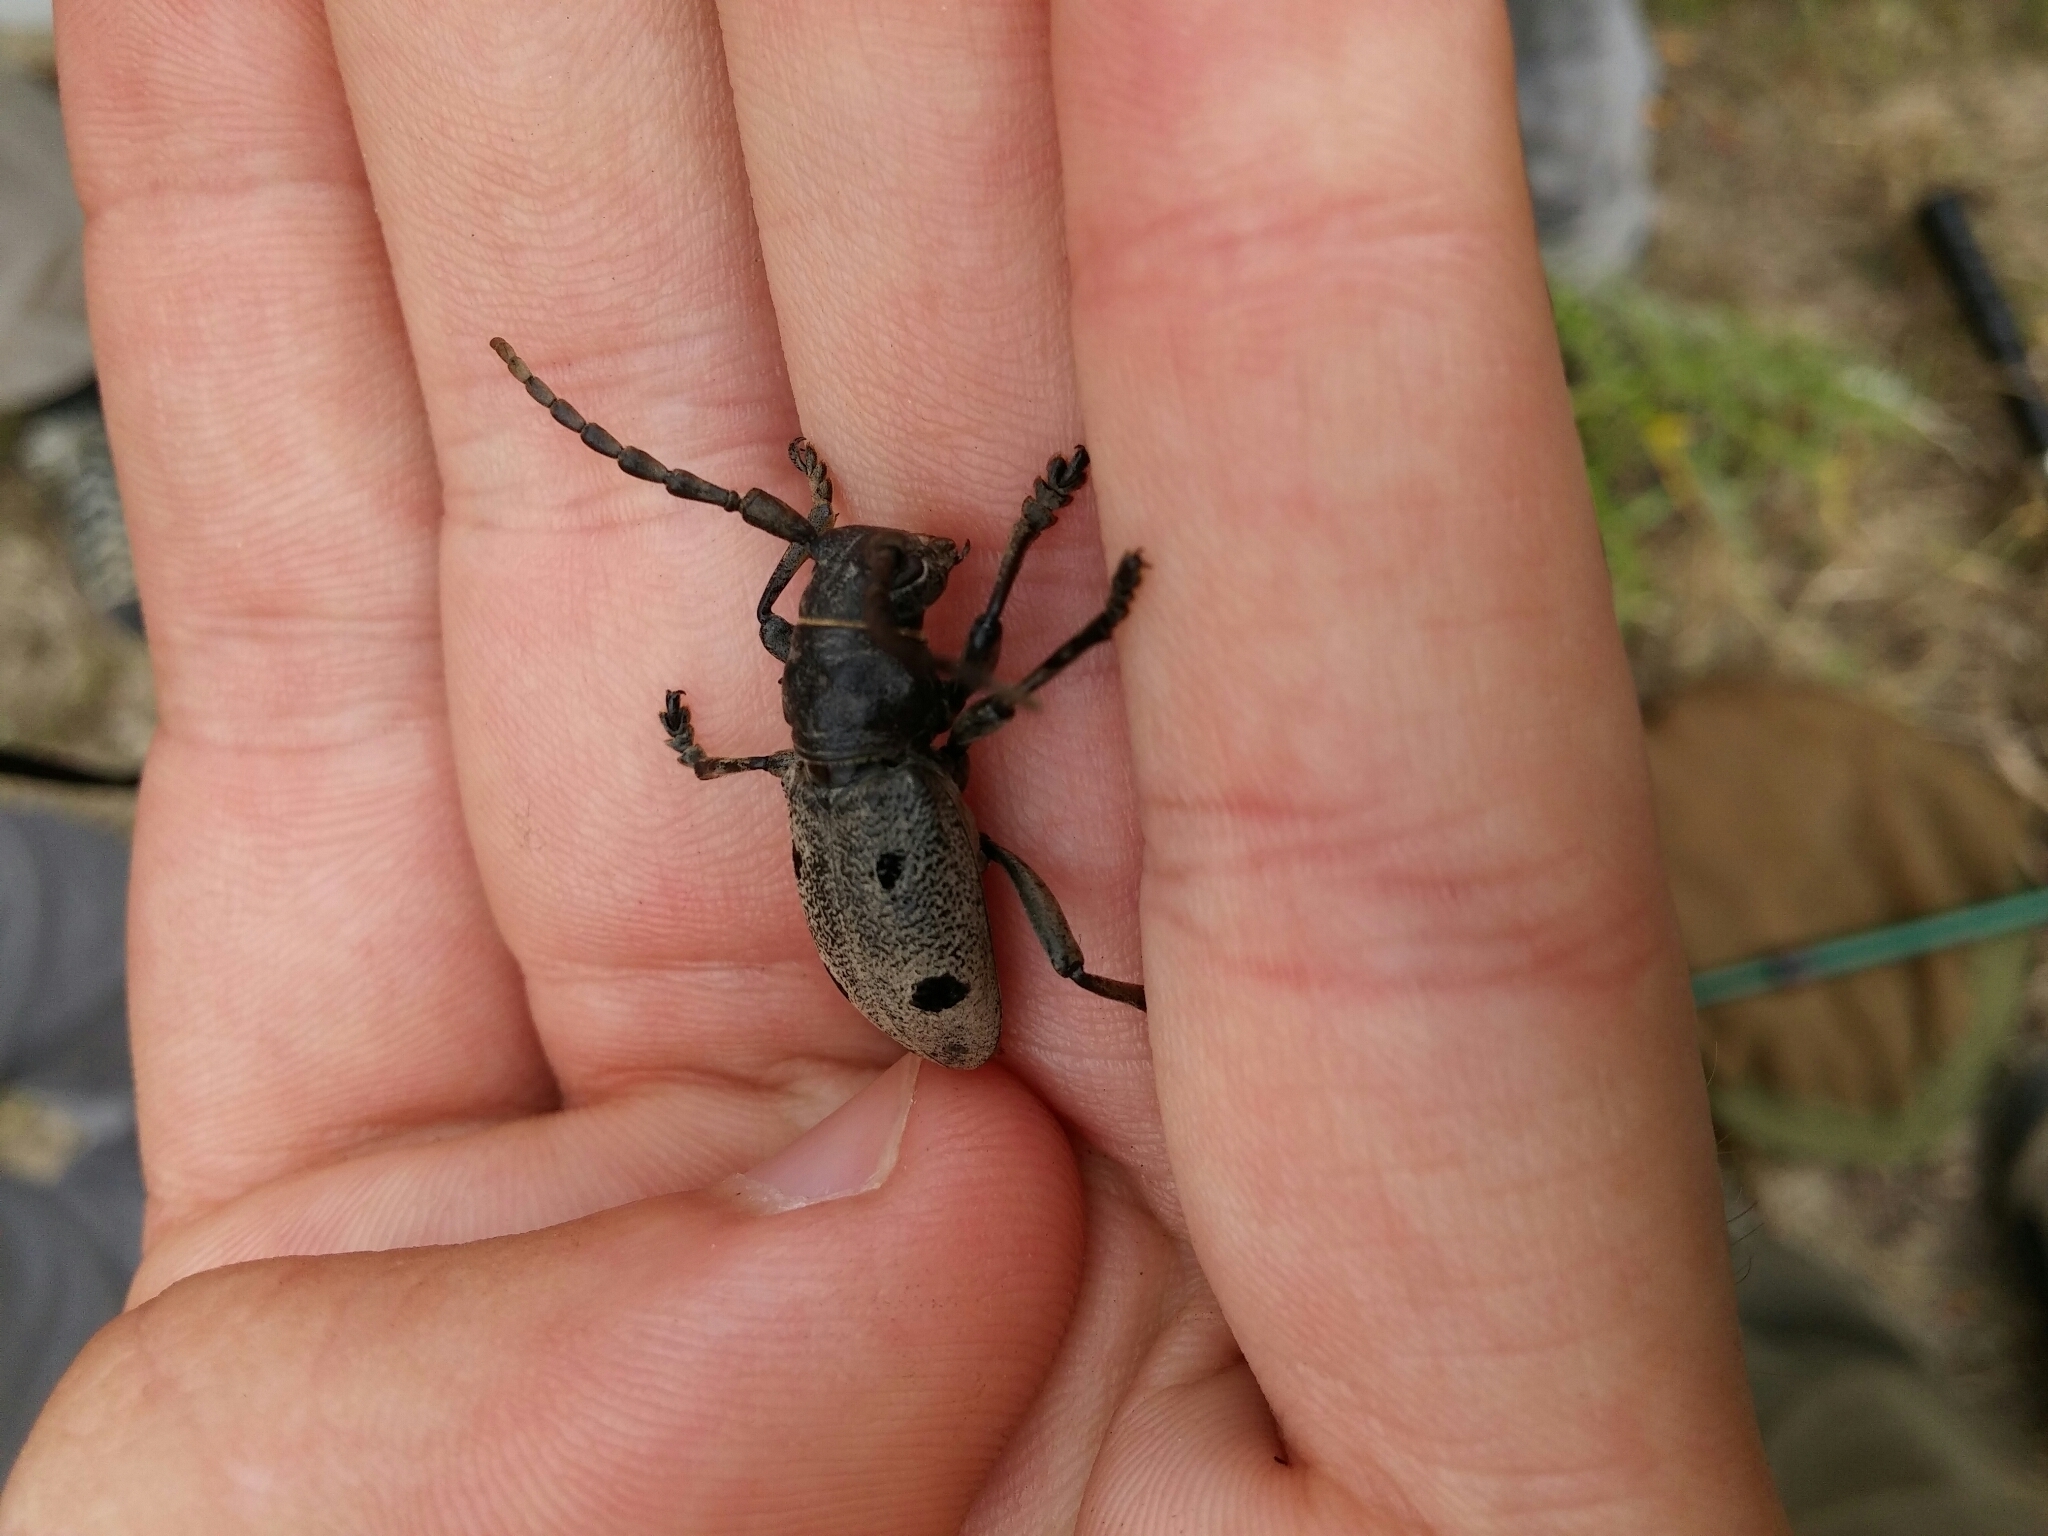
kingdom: Animalia
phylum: Arthropoda
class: Insecta
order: Coleoptera
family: Cerambycidae
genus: Herophila
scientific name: Herophila tristis
